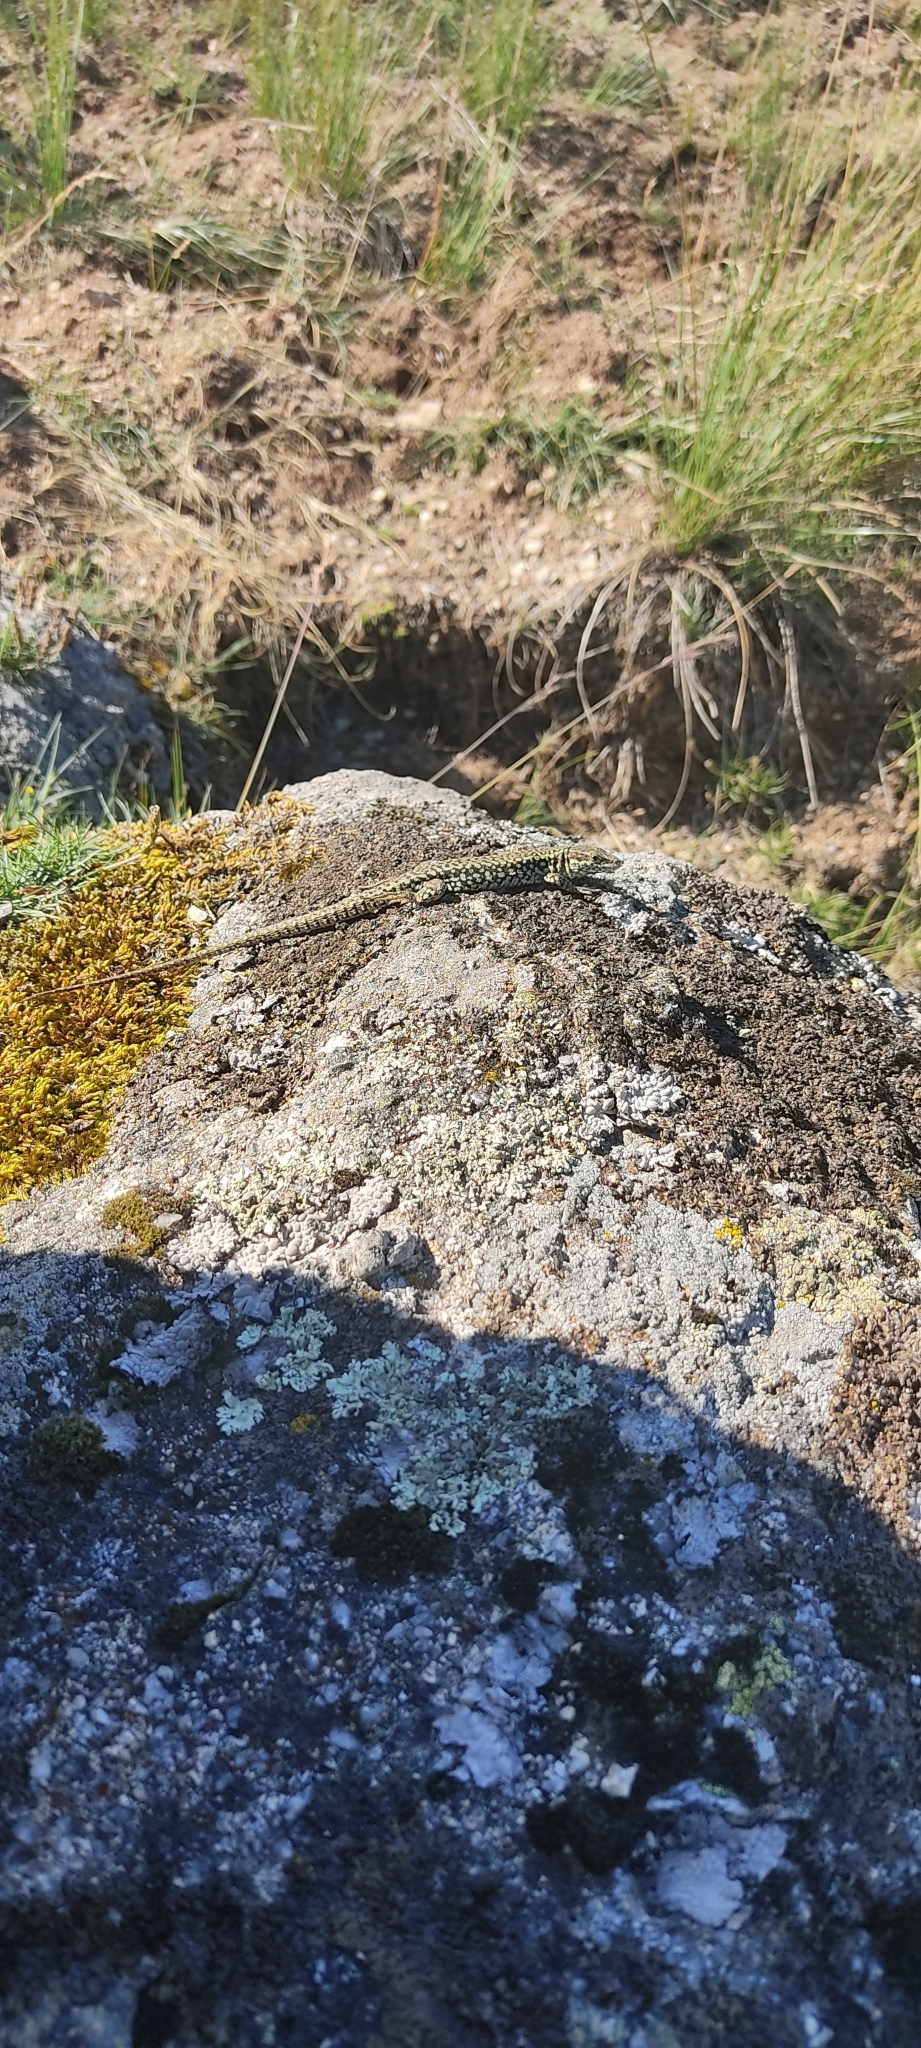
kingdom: Animalia
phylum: Chordata
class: Squamata
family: Lacertidae
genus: Podarcis
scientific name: Podarcis muralis
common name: Common wall lizard
